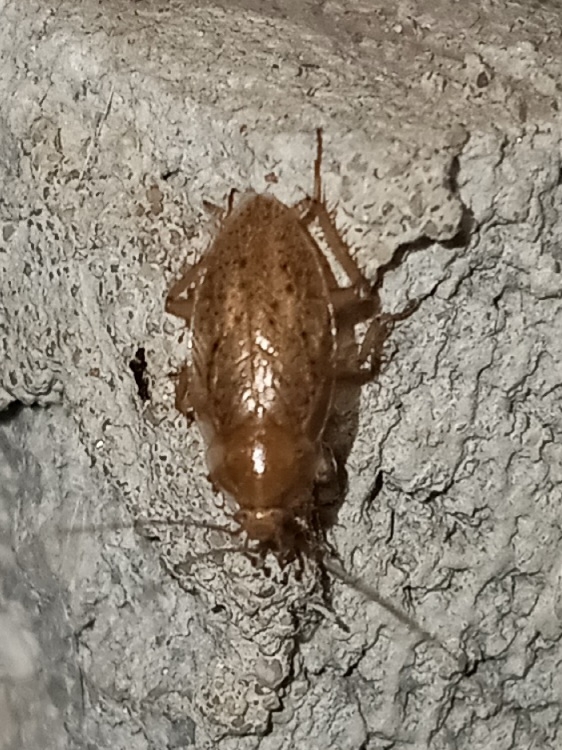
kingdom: Animalia
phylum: Arthropoda
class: Insecta
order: Blattodea
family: Ectobiidae
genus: Ectobius
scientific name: Ectobius pallidus
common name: Tawny cockroach
